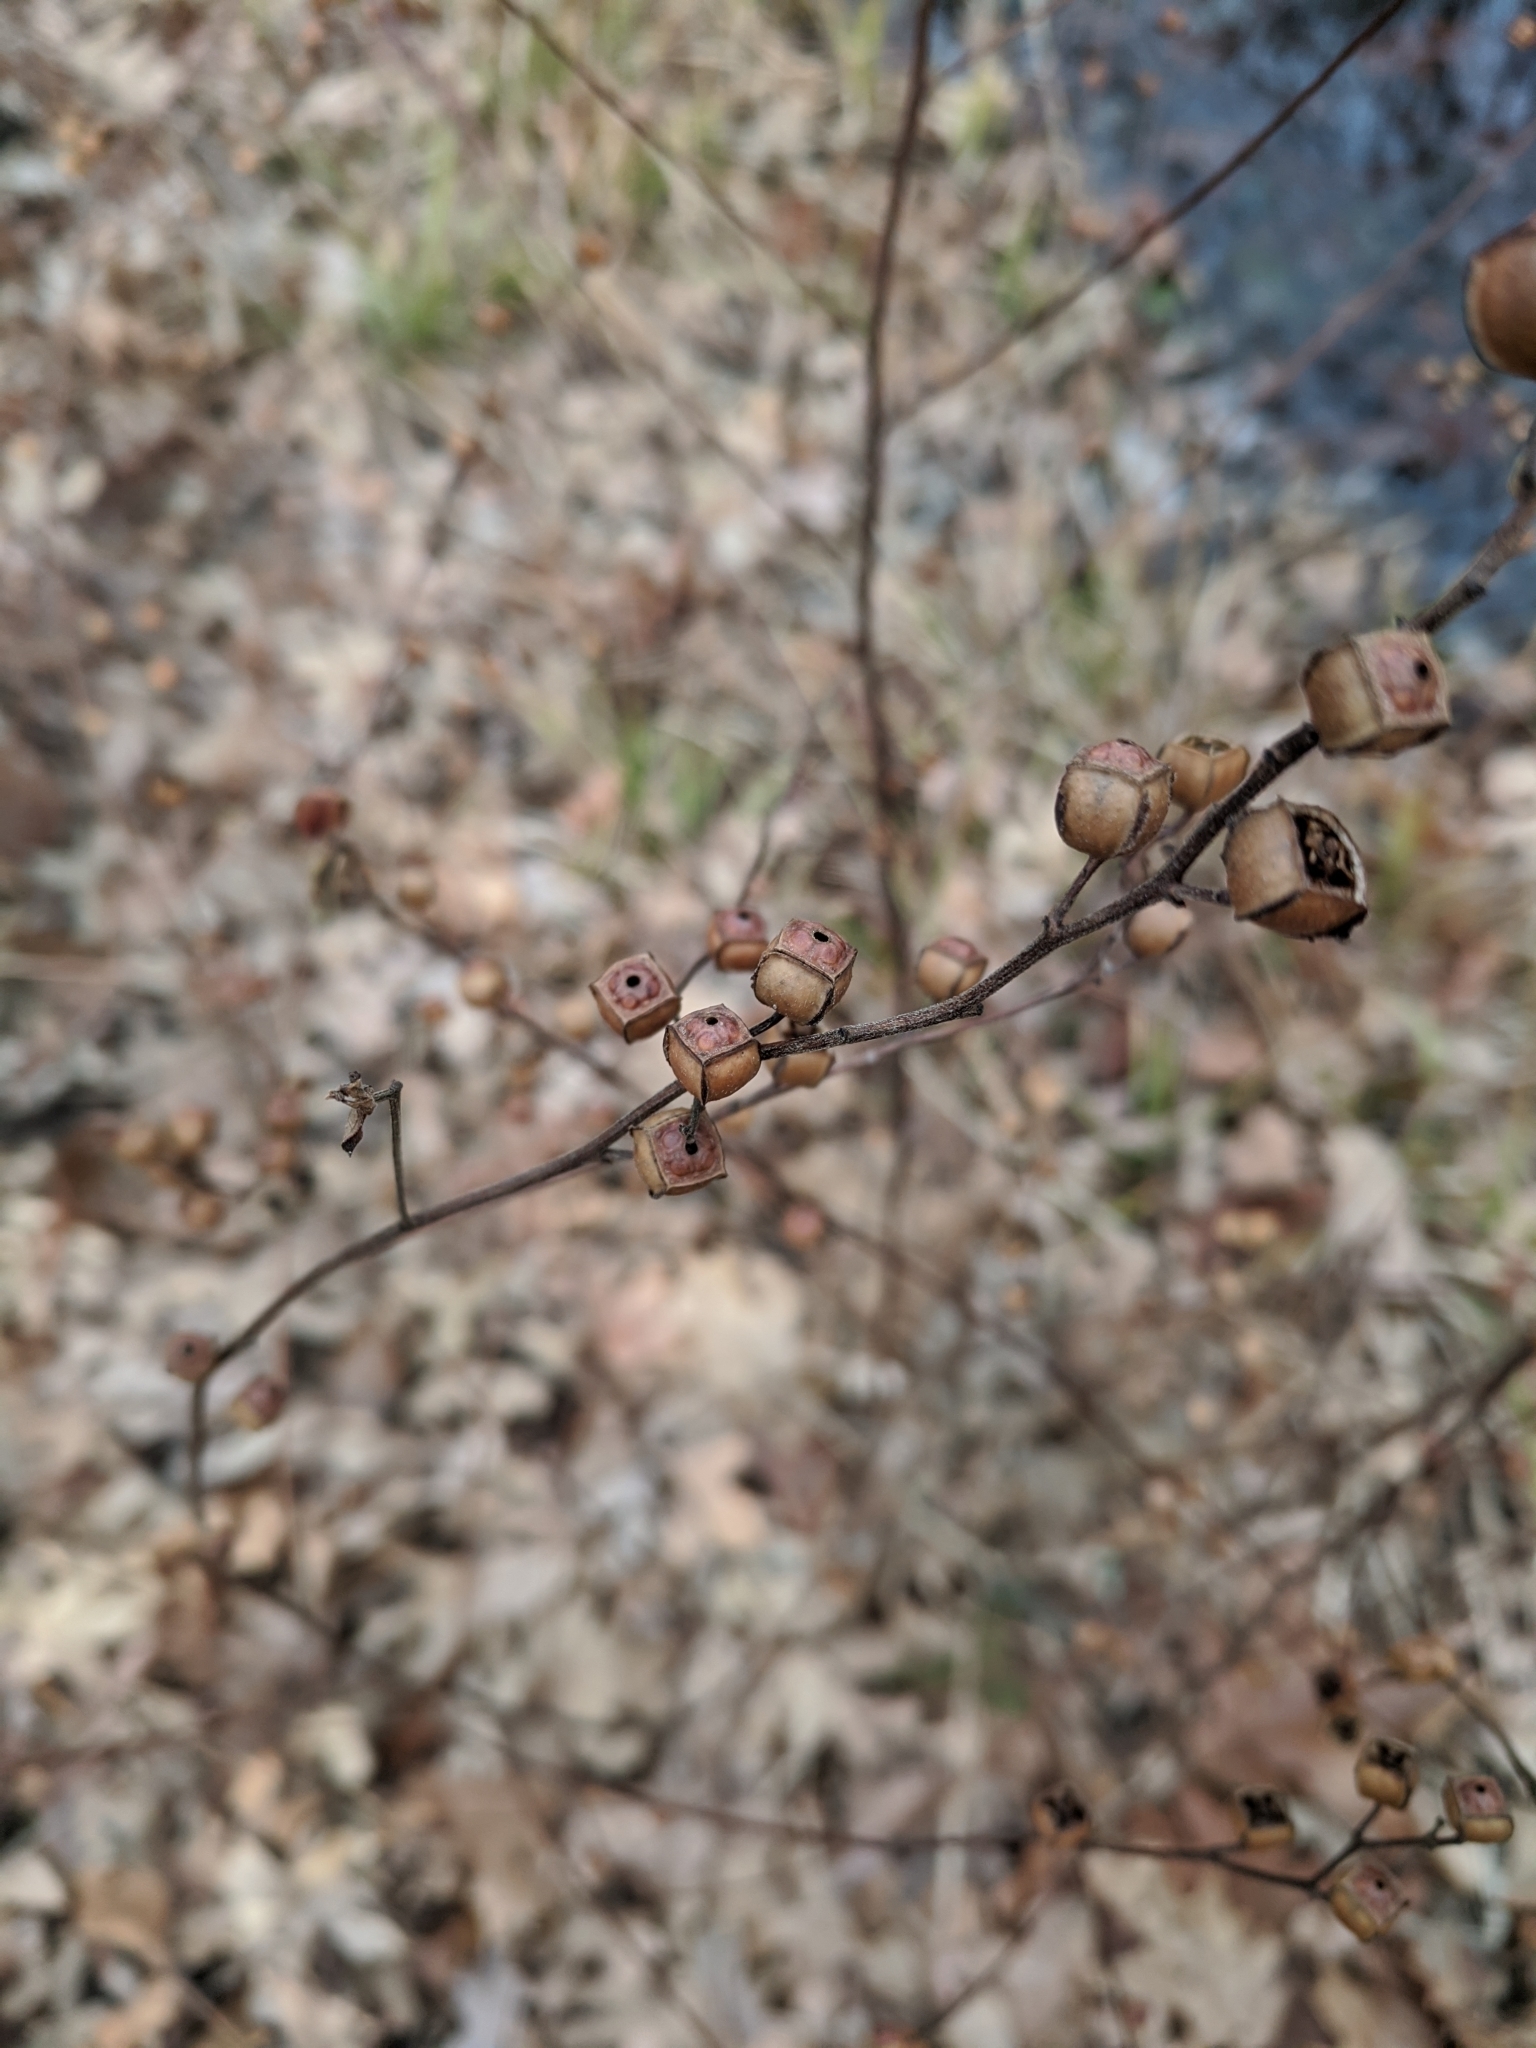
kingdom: Plantae
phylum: Tracheophyta
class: Magnoliopsida
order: Myrtales
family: Onagraceae
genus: Ludwigia
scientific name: Ludwigia alternifolia
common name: Rattlebox
